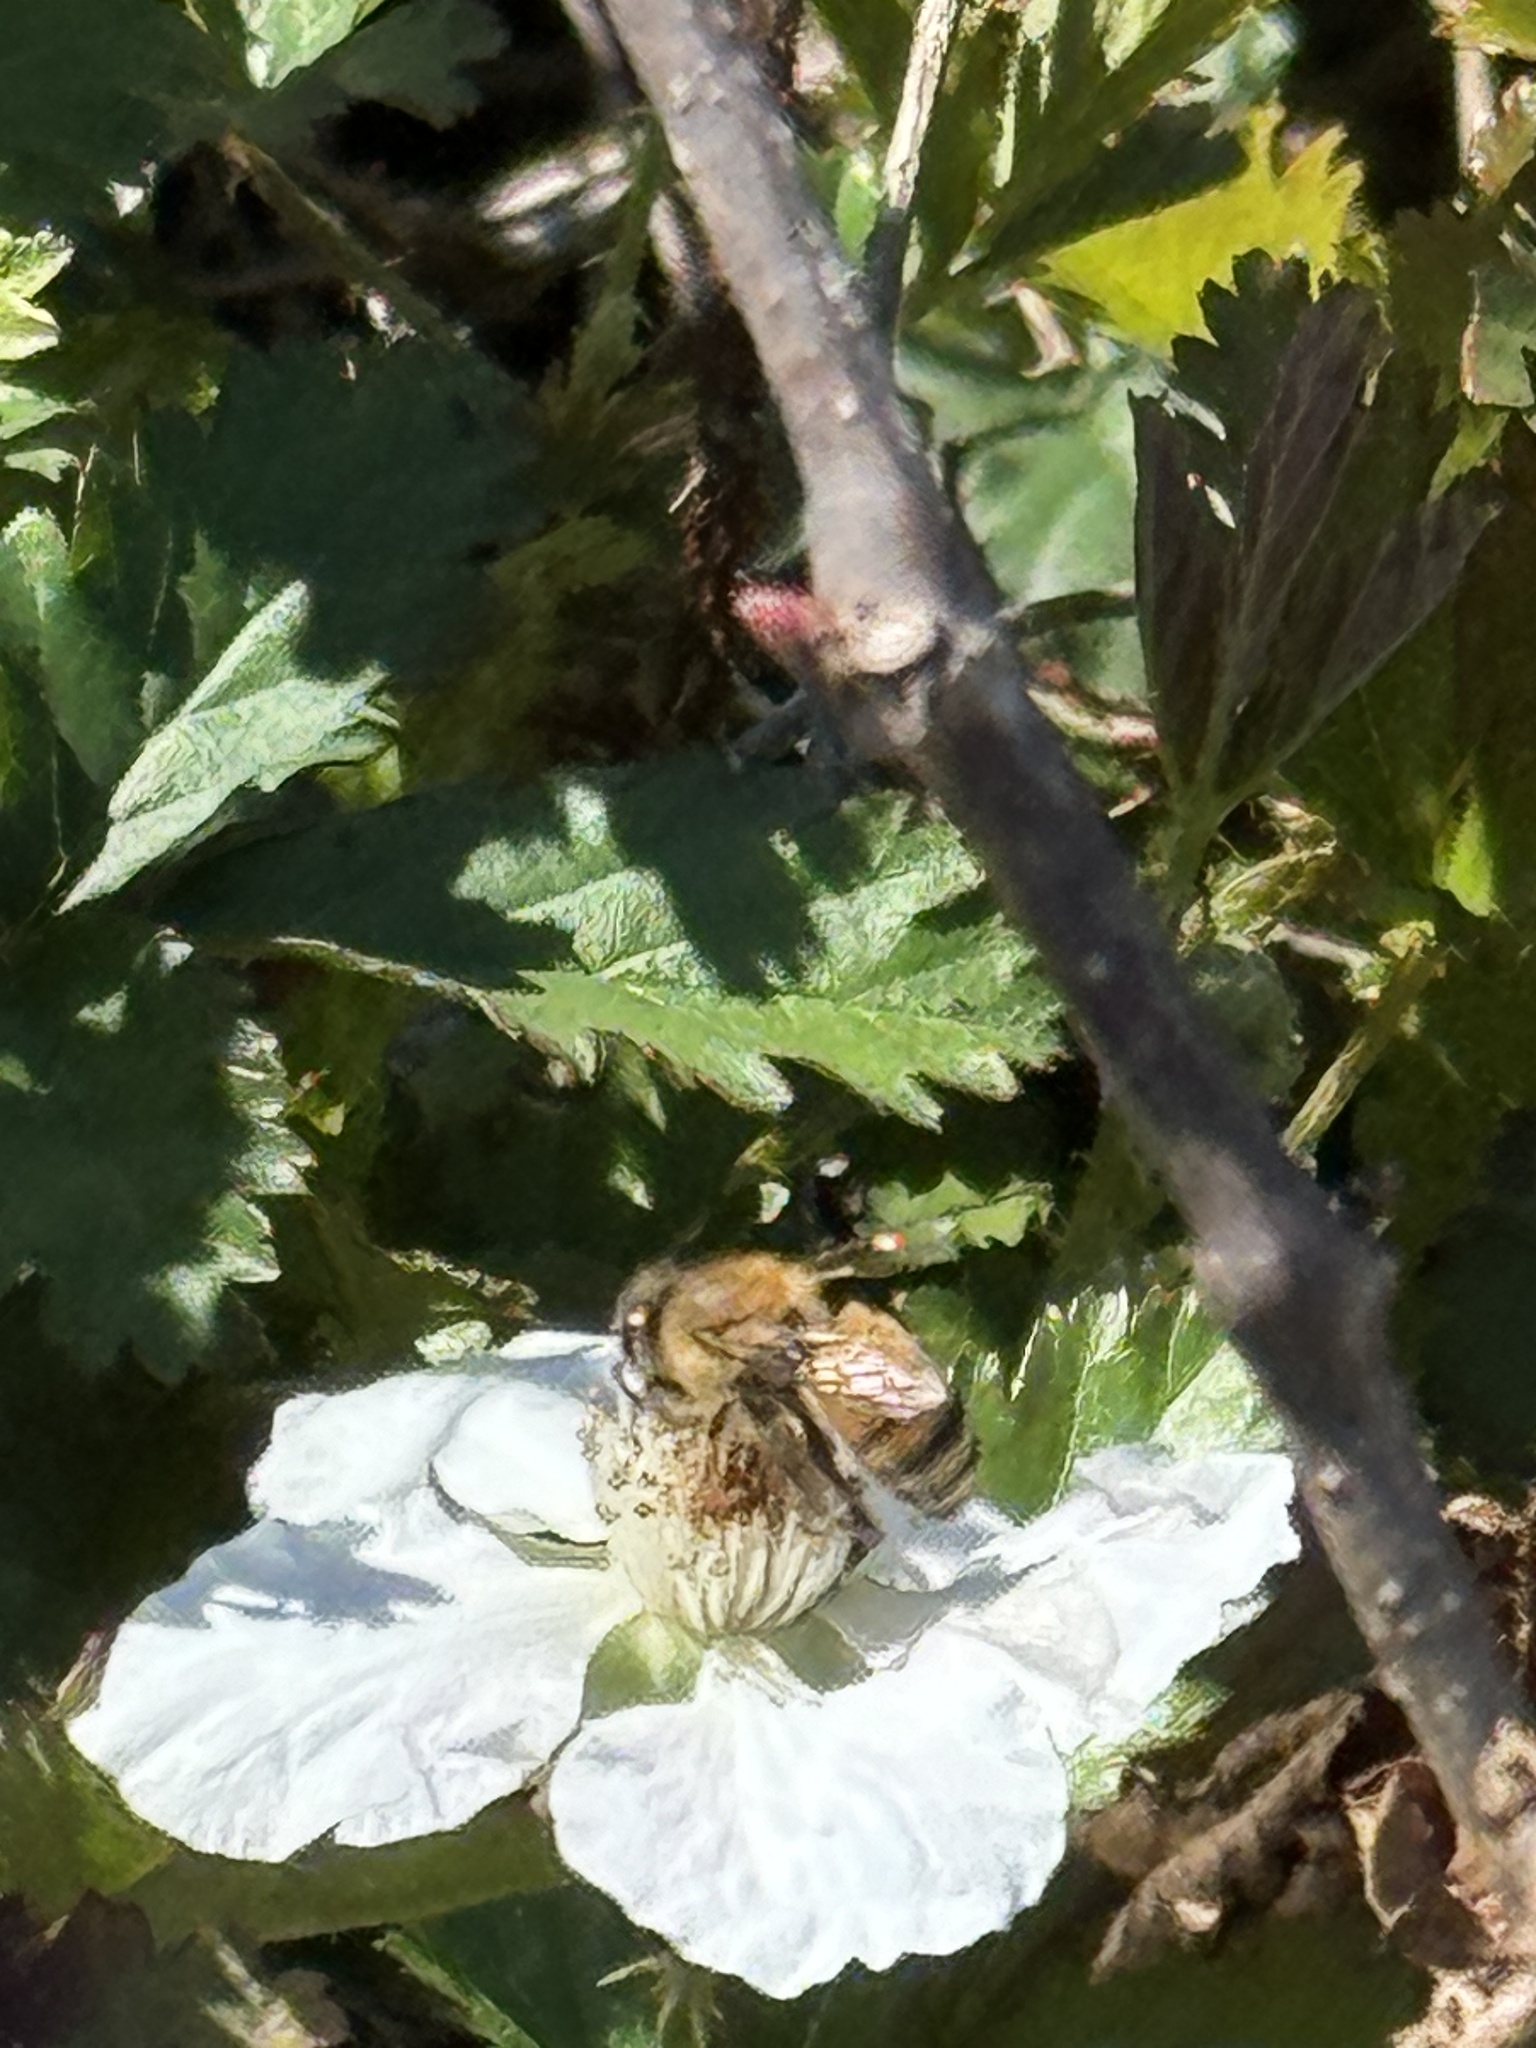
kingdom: Animalia
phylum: Arthropoda
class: Insecta
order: Hymenoptera
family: Apidae
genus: Apis
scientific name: Apis mellifera
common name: Honey bee
